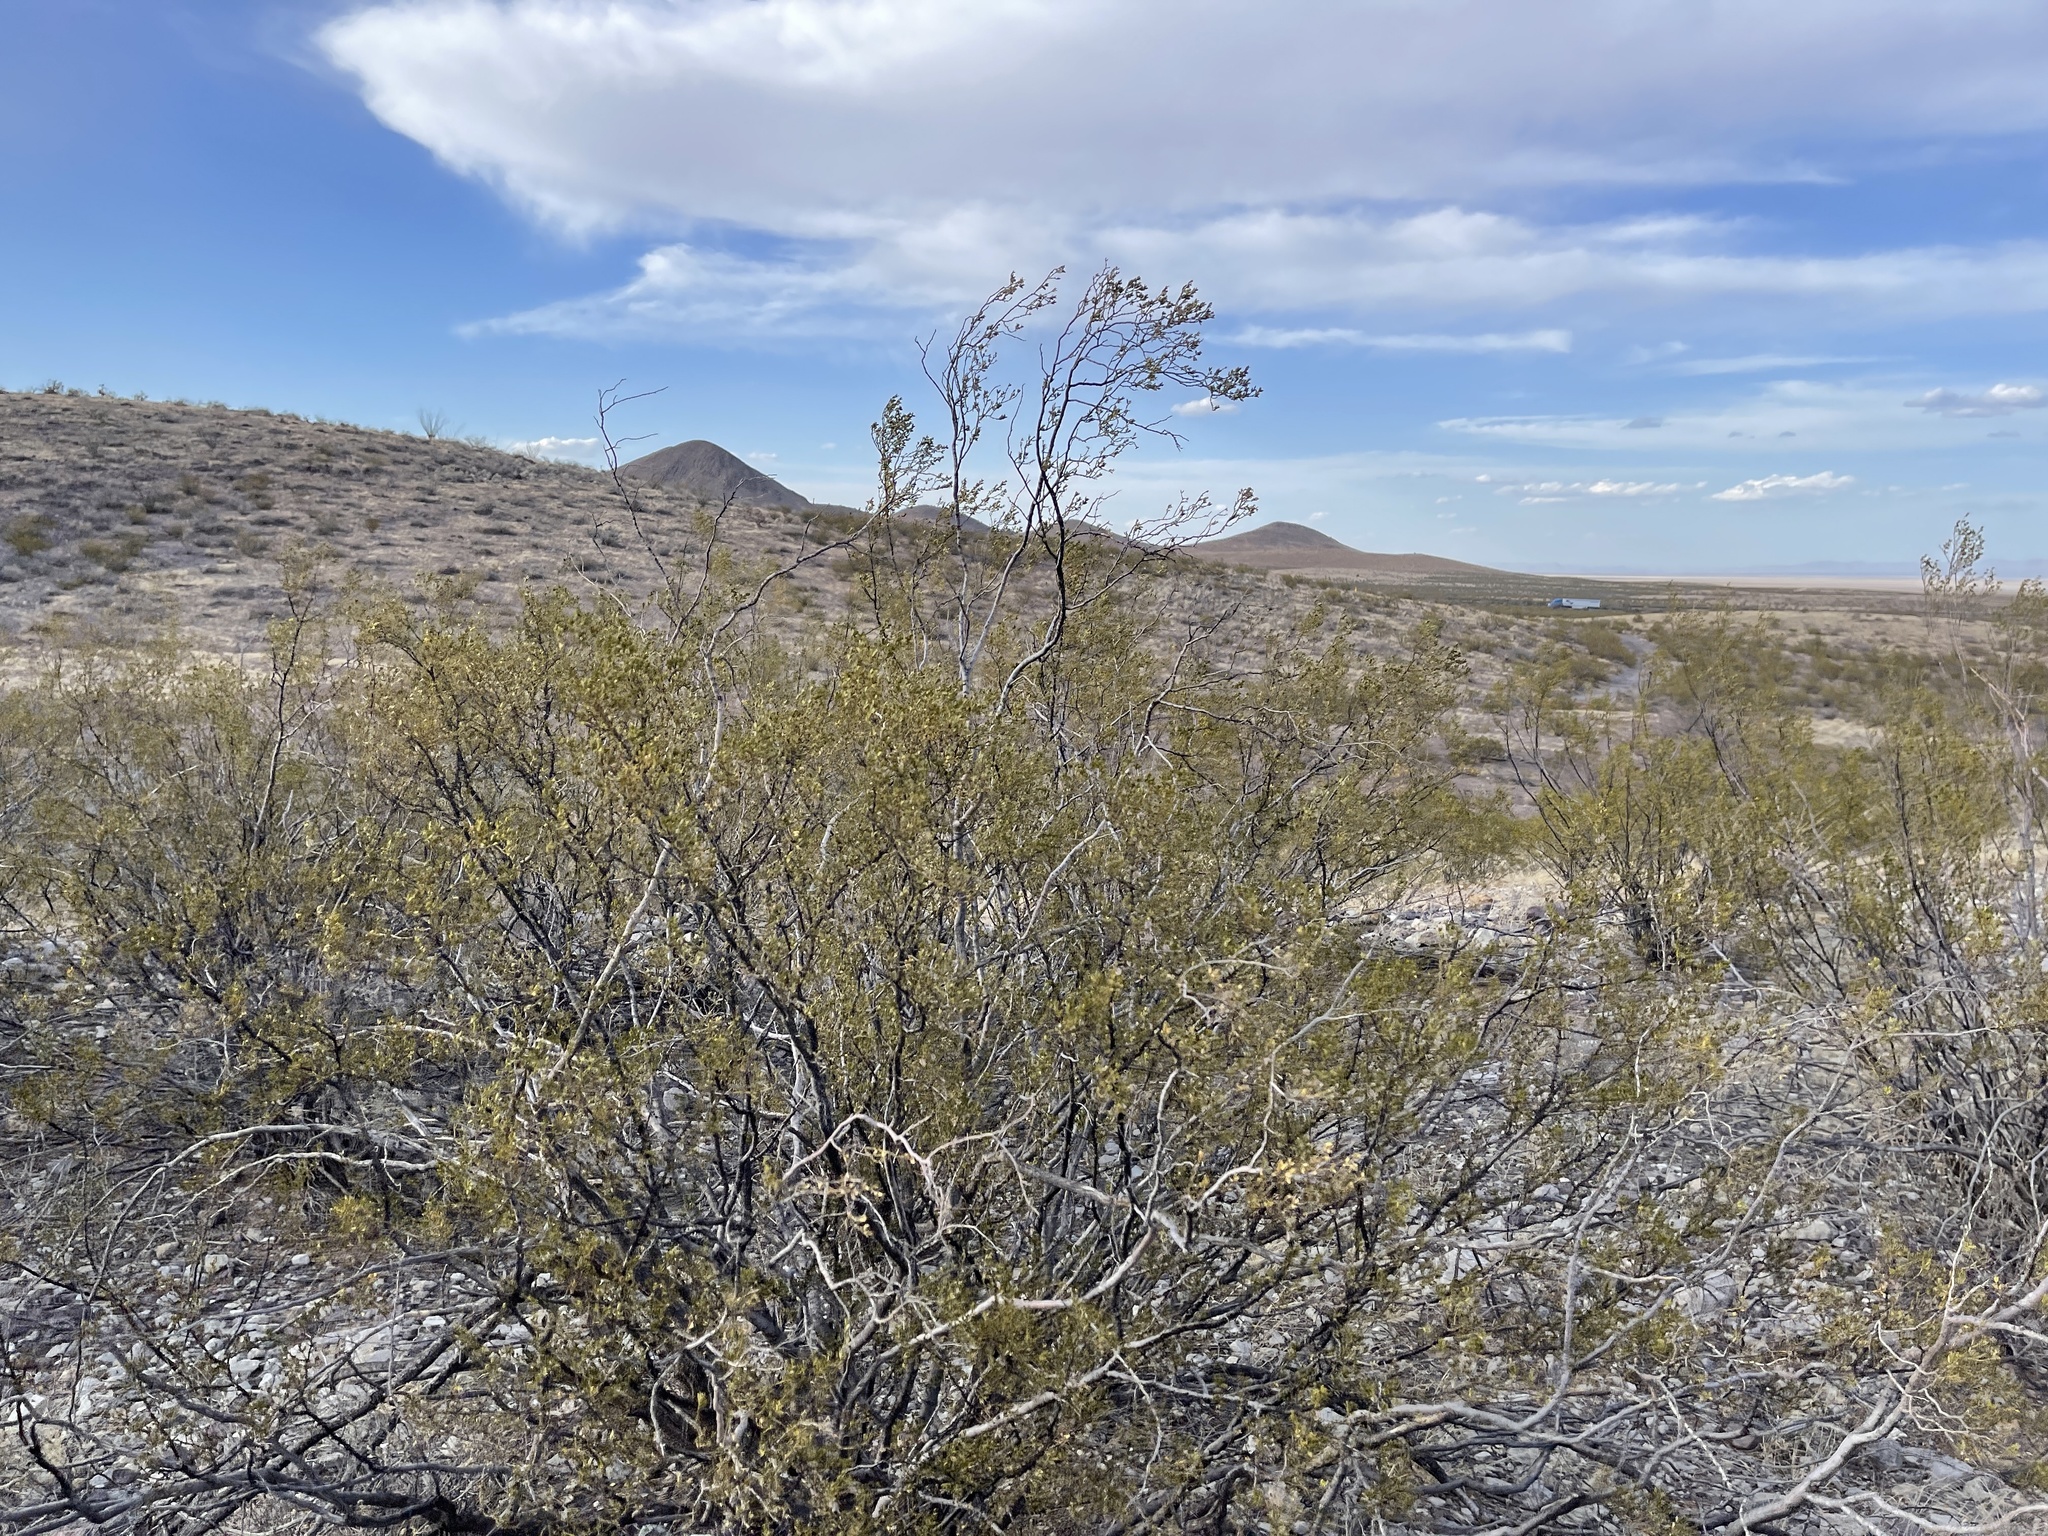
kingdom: Plantae
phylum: Tracheophyta
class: Magnoliopsida
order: Zygophyllales
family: Zygophyllaceae
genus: Larrea
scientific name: Larrea tridentata
